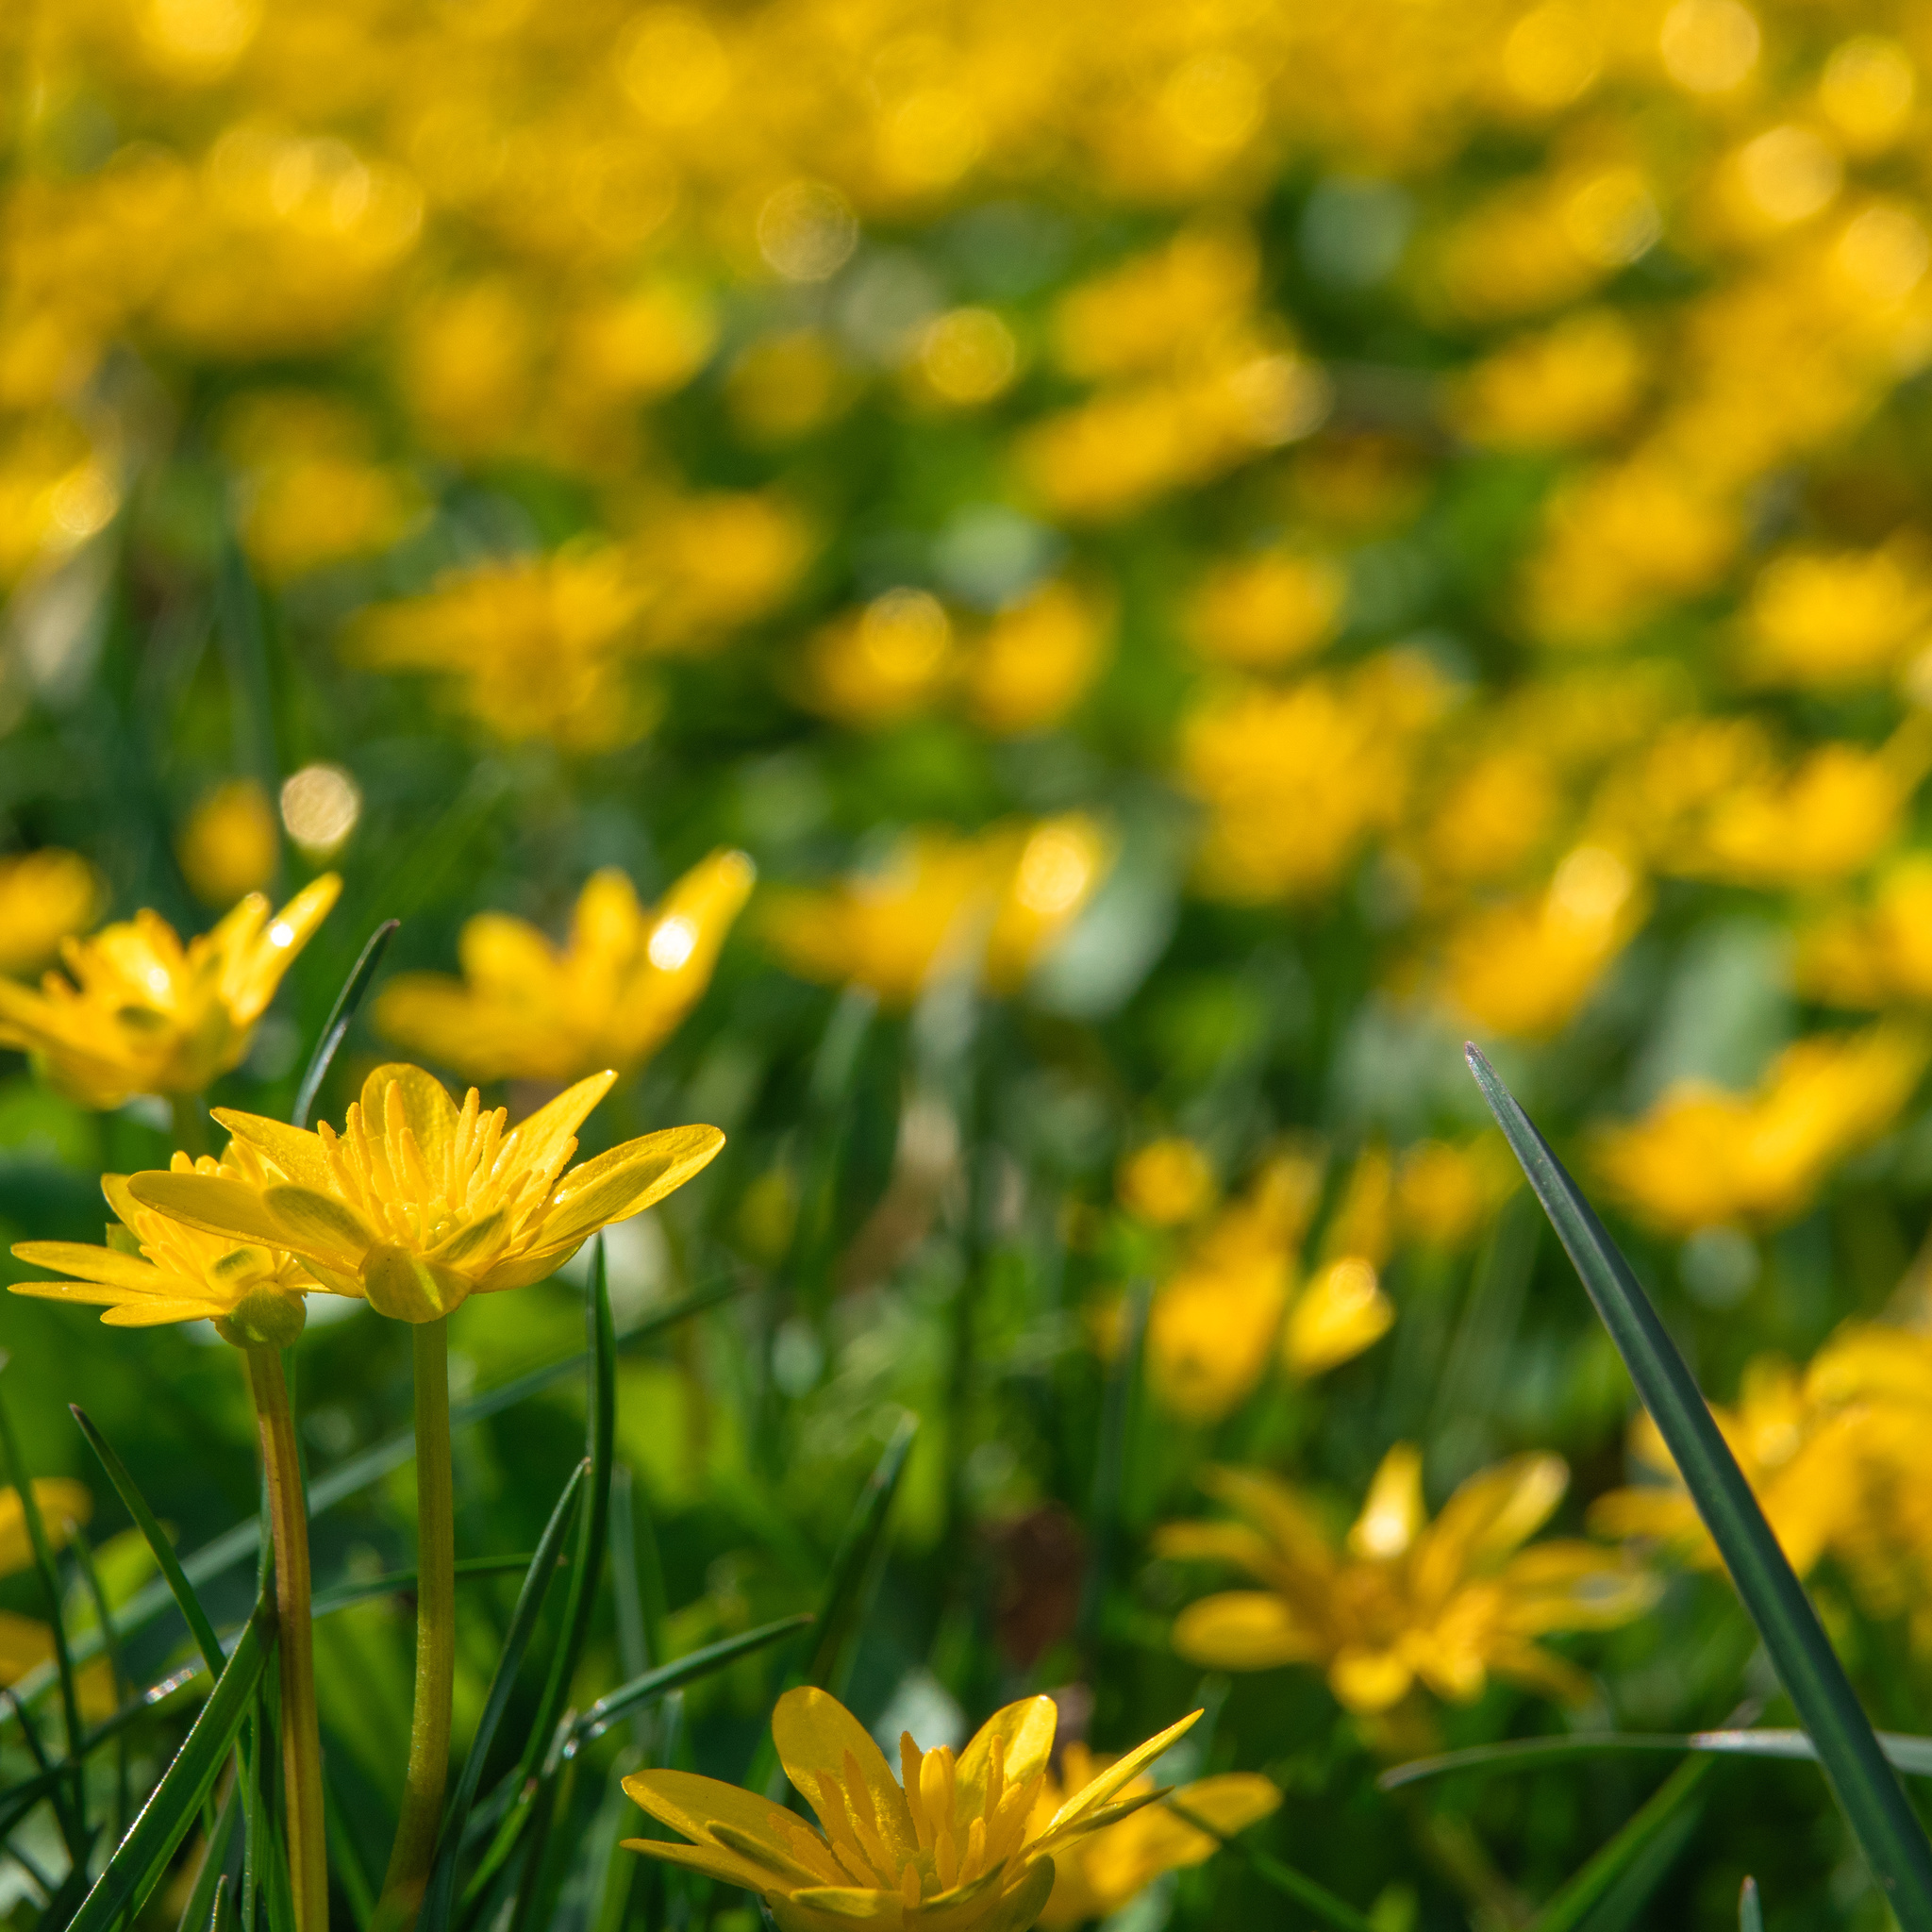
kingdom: Plantae
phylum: Tracheophyta
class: Magnoliopsida
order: Ranunculales
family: Ranunculaceae
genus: Ficaria
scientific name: Ficaria verna
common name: Lesser celandine
